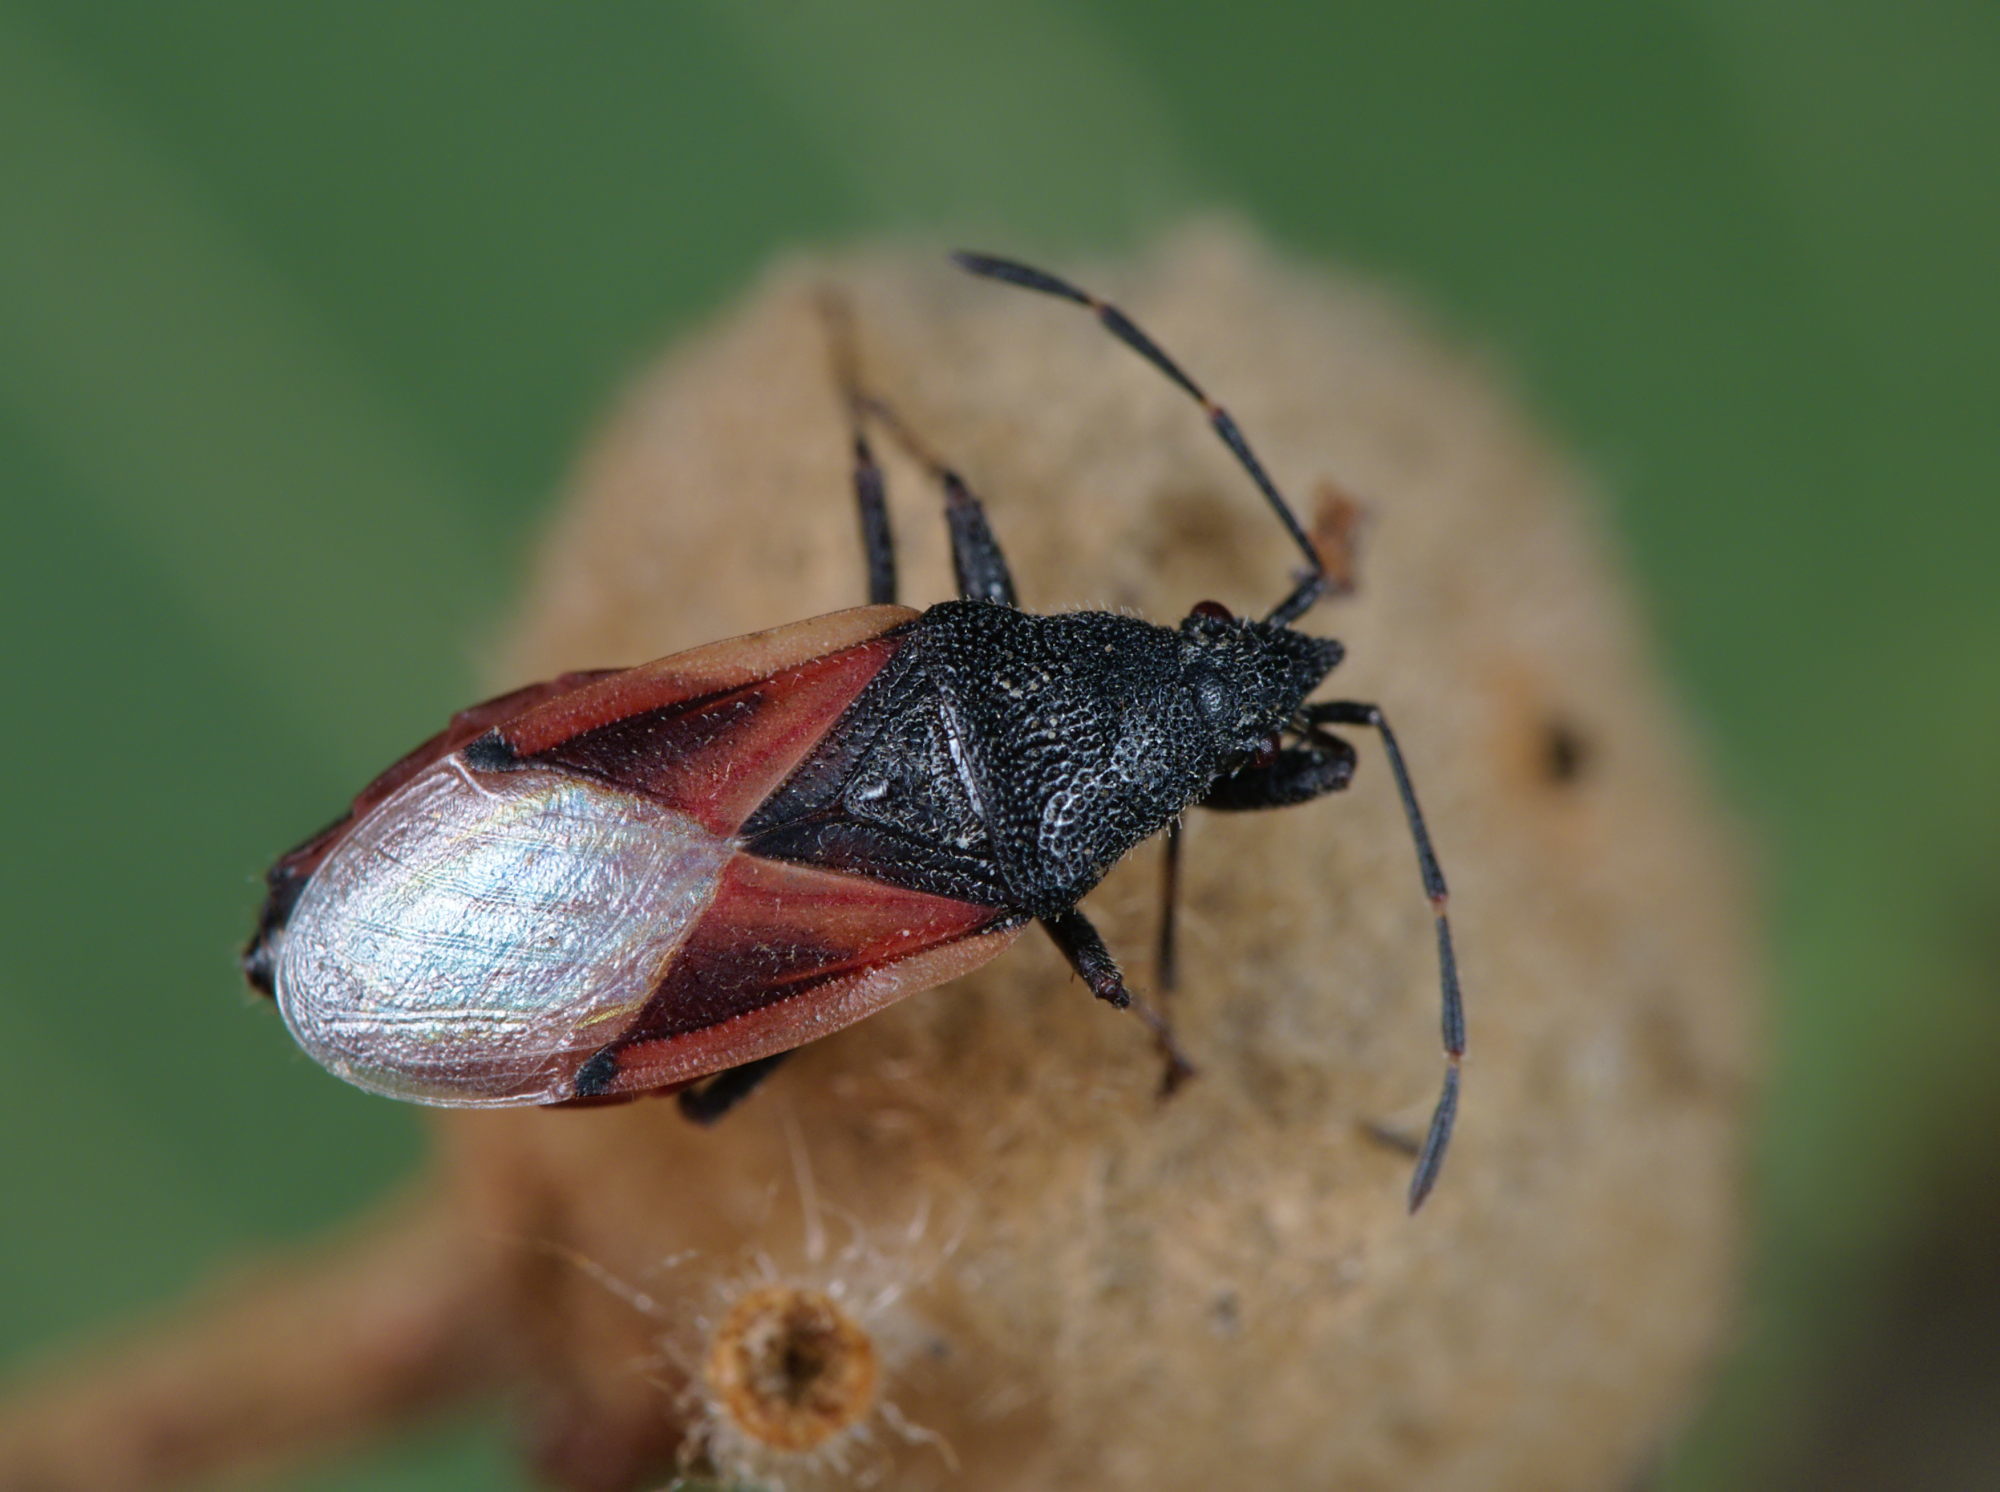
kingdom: Animalia
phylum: Arthropoda
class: Insecta
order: Hemiptera
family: Oxycarenidae
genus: Oxycarenus
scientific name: Oxycarenus lavaterae
